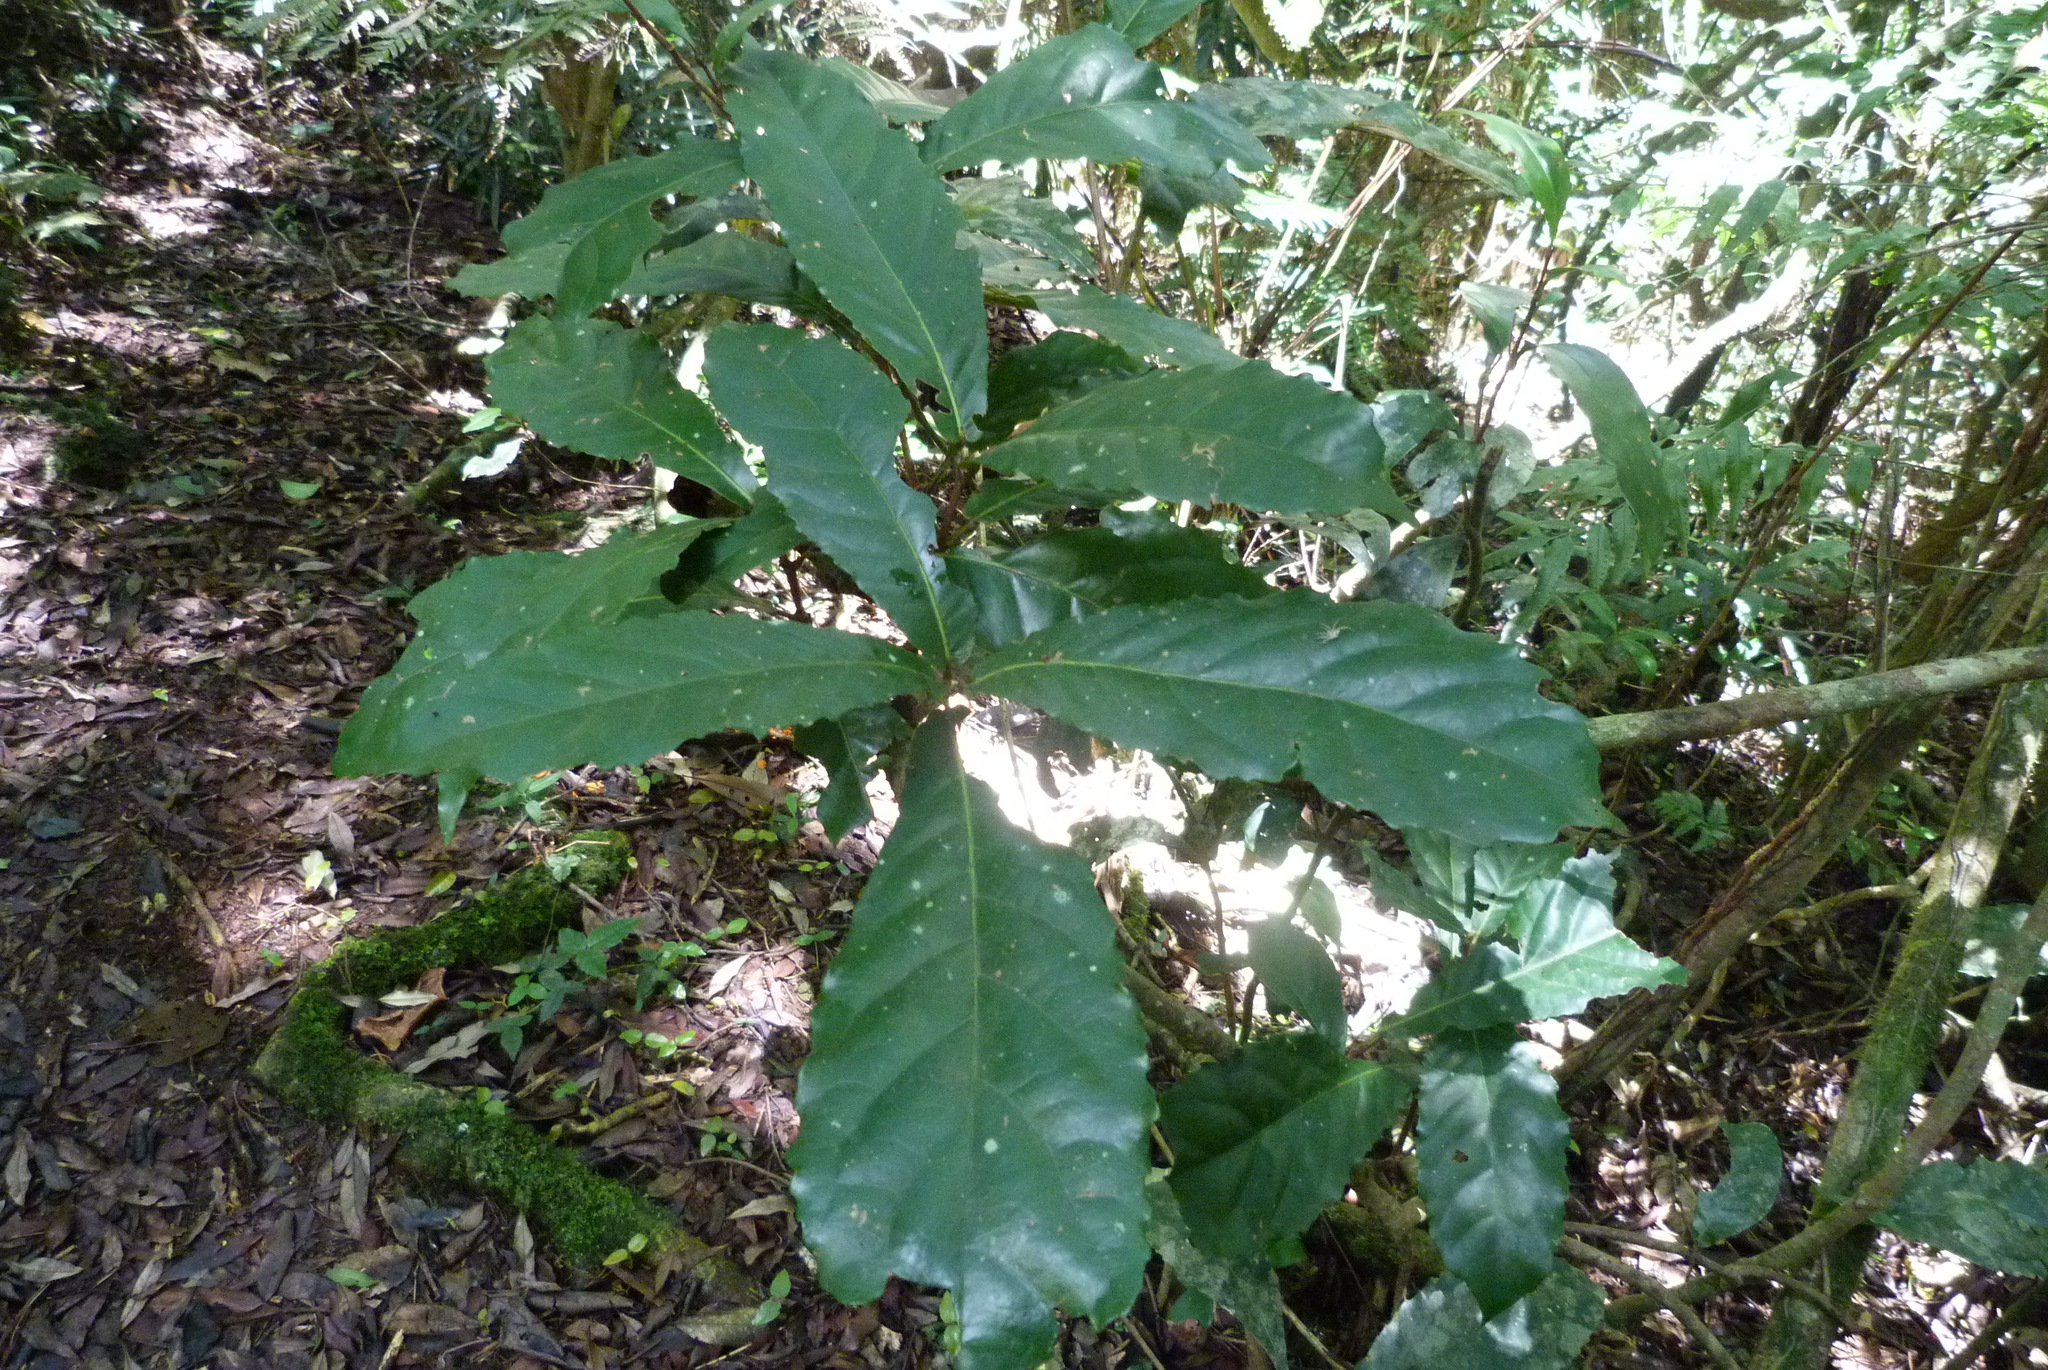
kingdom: Plantae
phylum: Tracheophyta
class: Magnoliopsida
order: Oxalidales
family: Elaeocarpaceae
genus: Sloanea
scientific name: Sloanea australis
